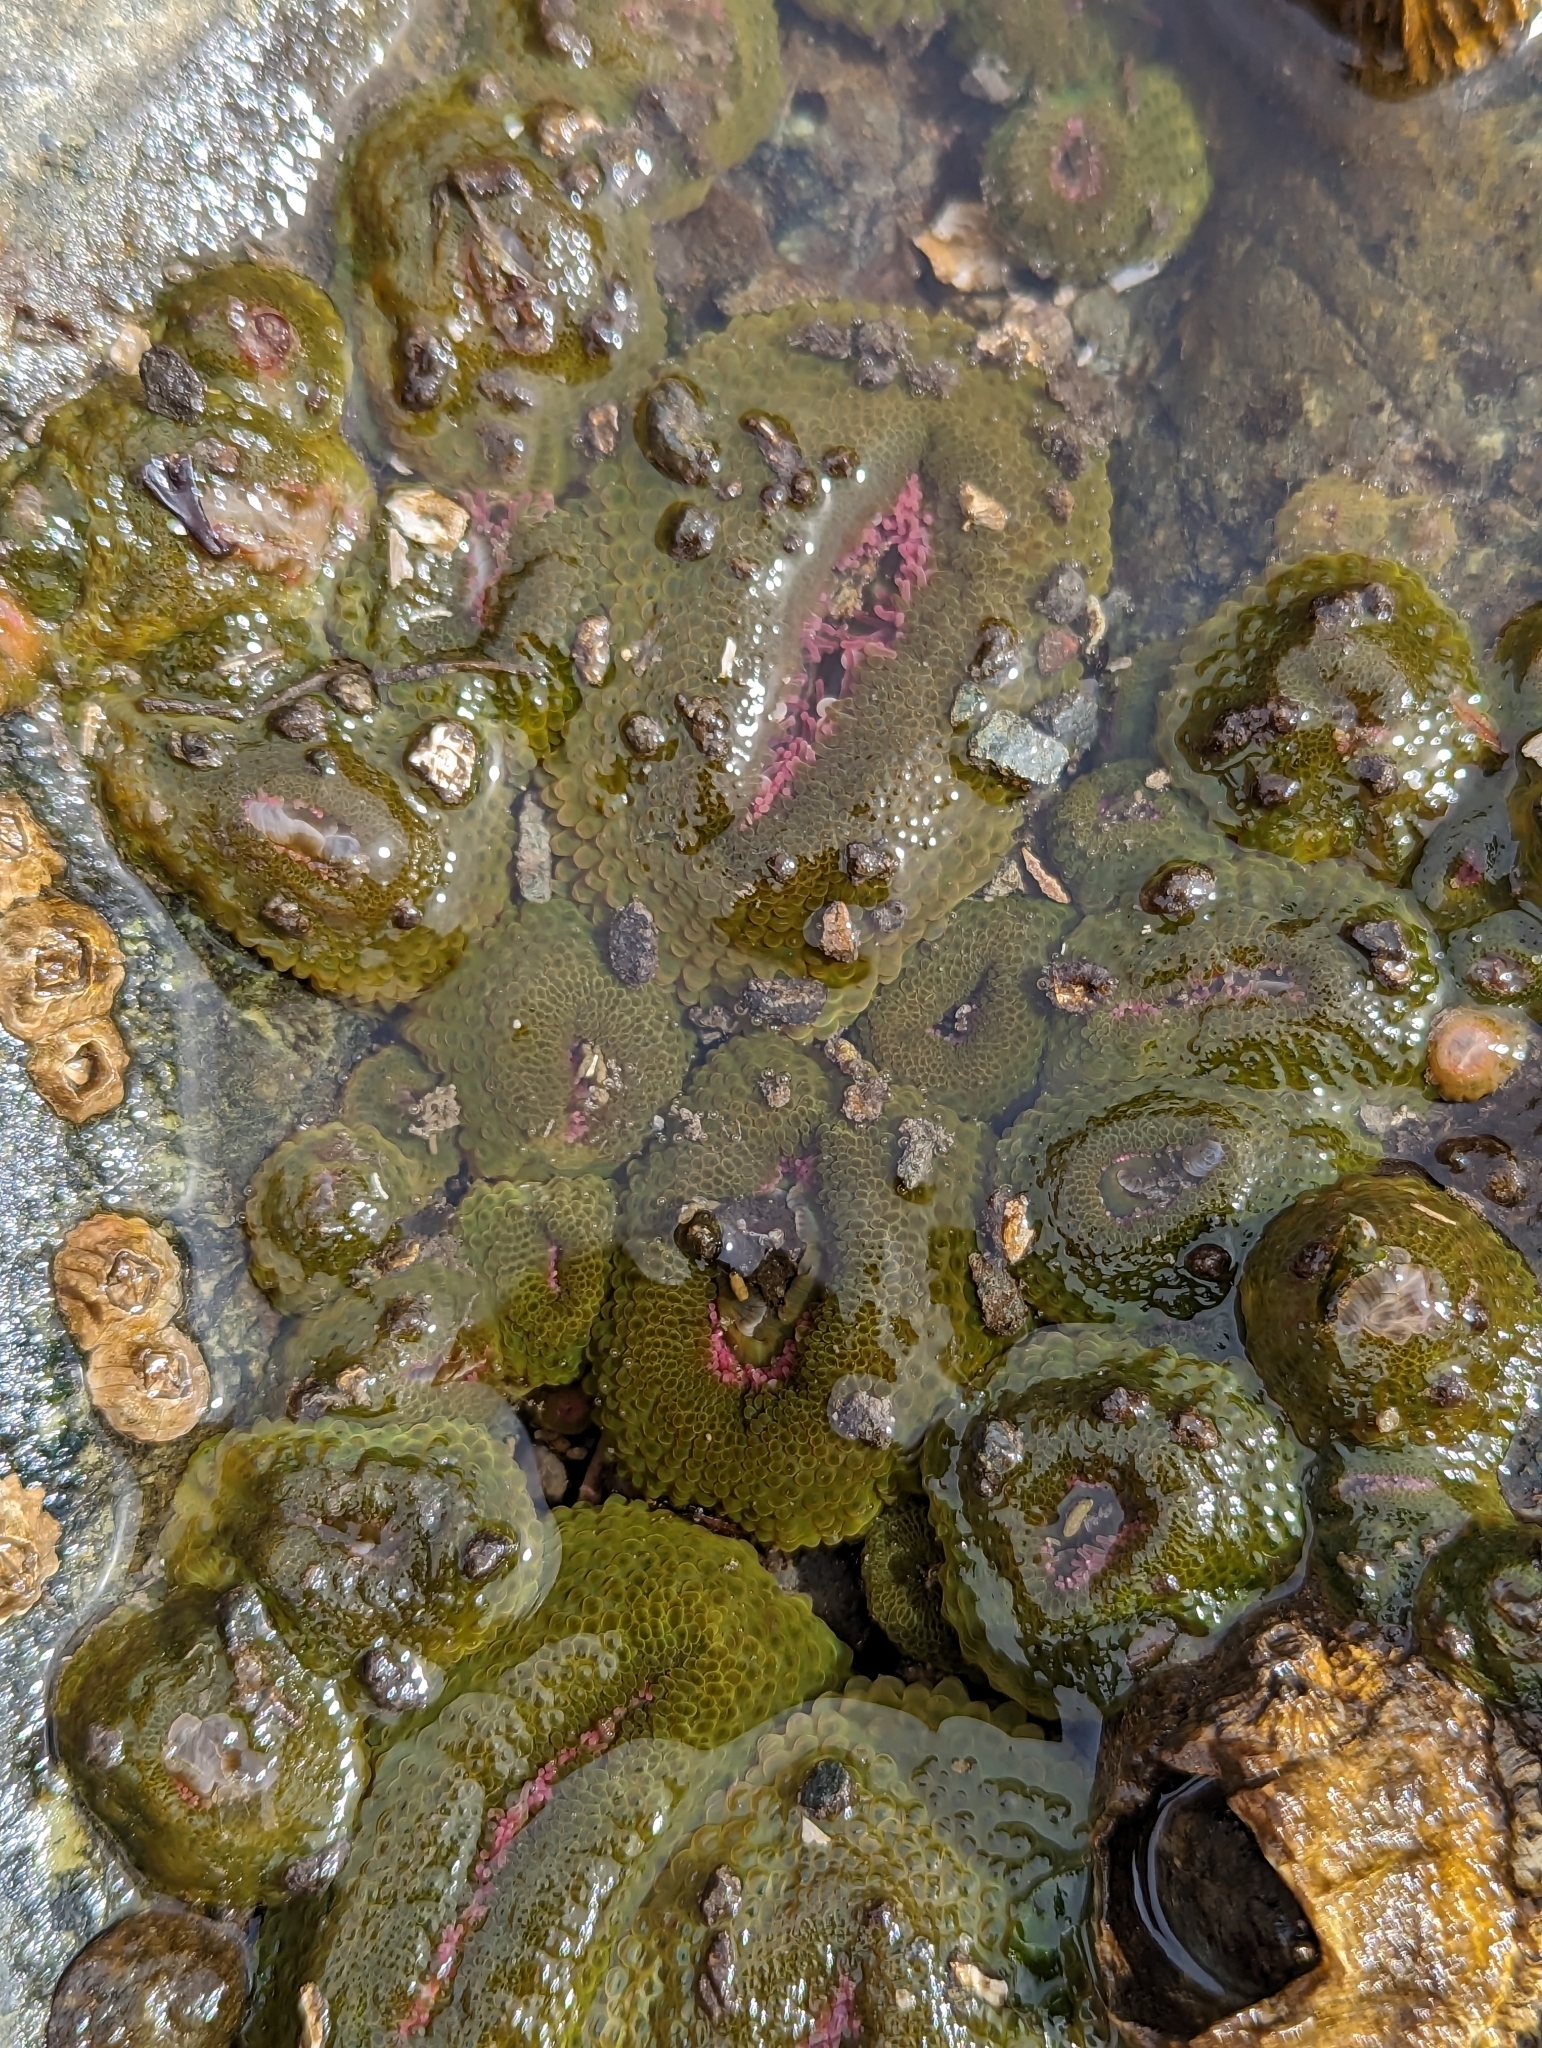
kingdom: Animalia
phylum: Cnidaria
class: Anthozoa
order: Actiniaria
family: Actiniidae
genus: Anthopleura
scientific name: Anthopleura elegantissima
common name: Clonal anemone
